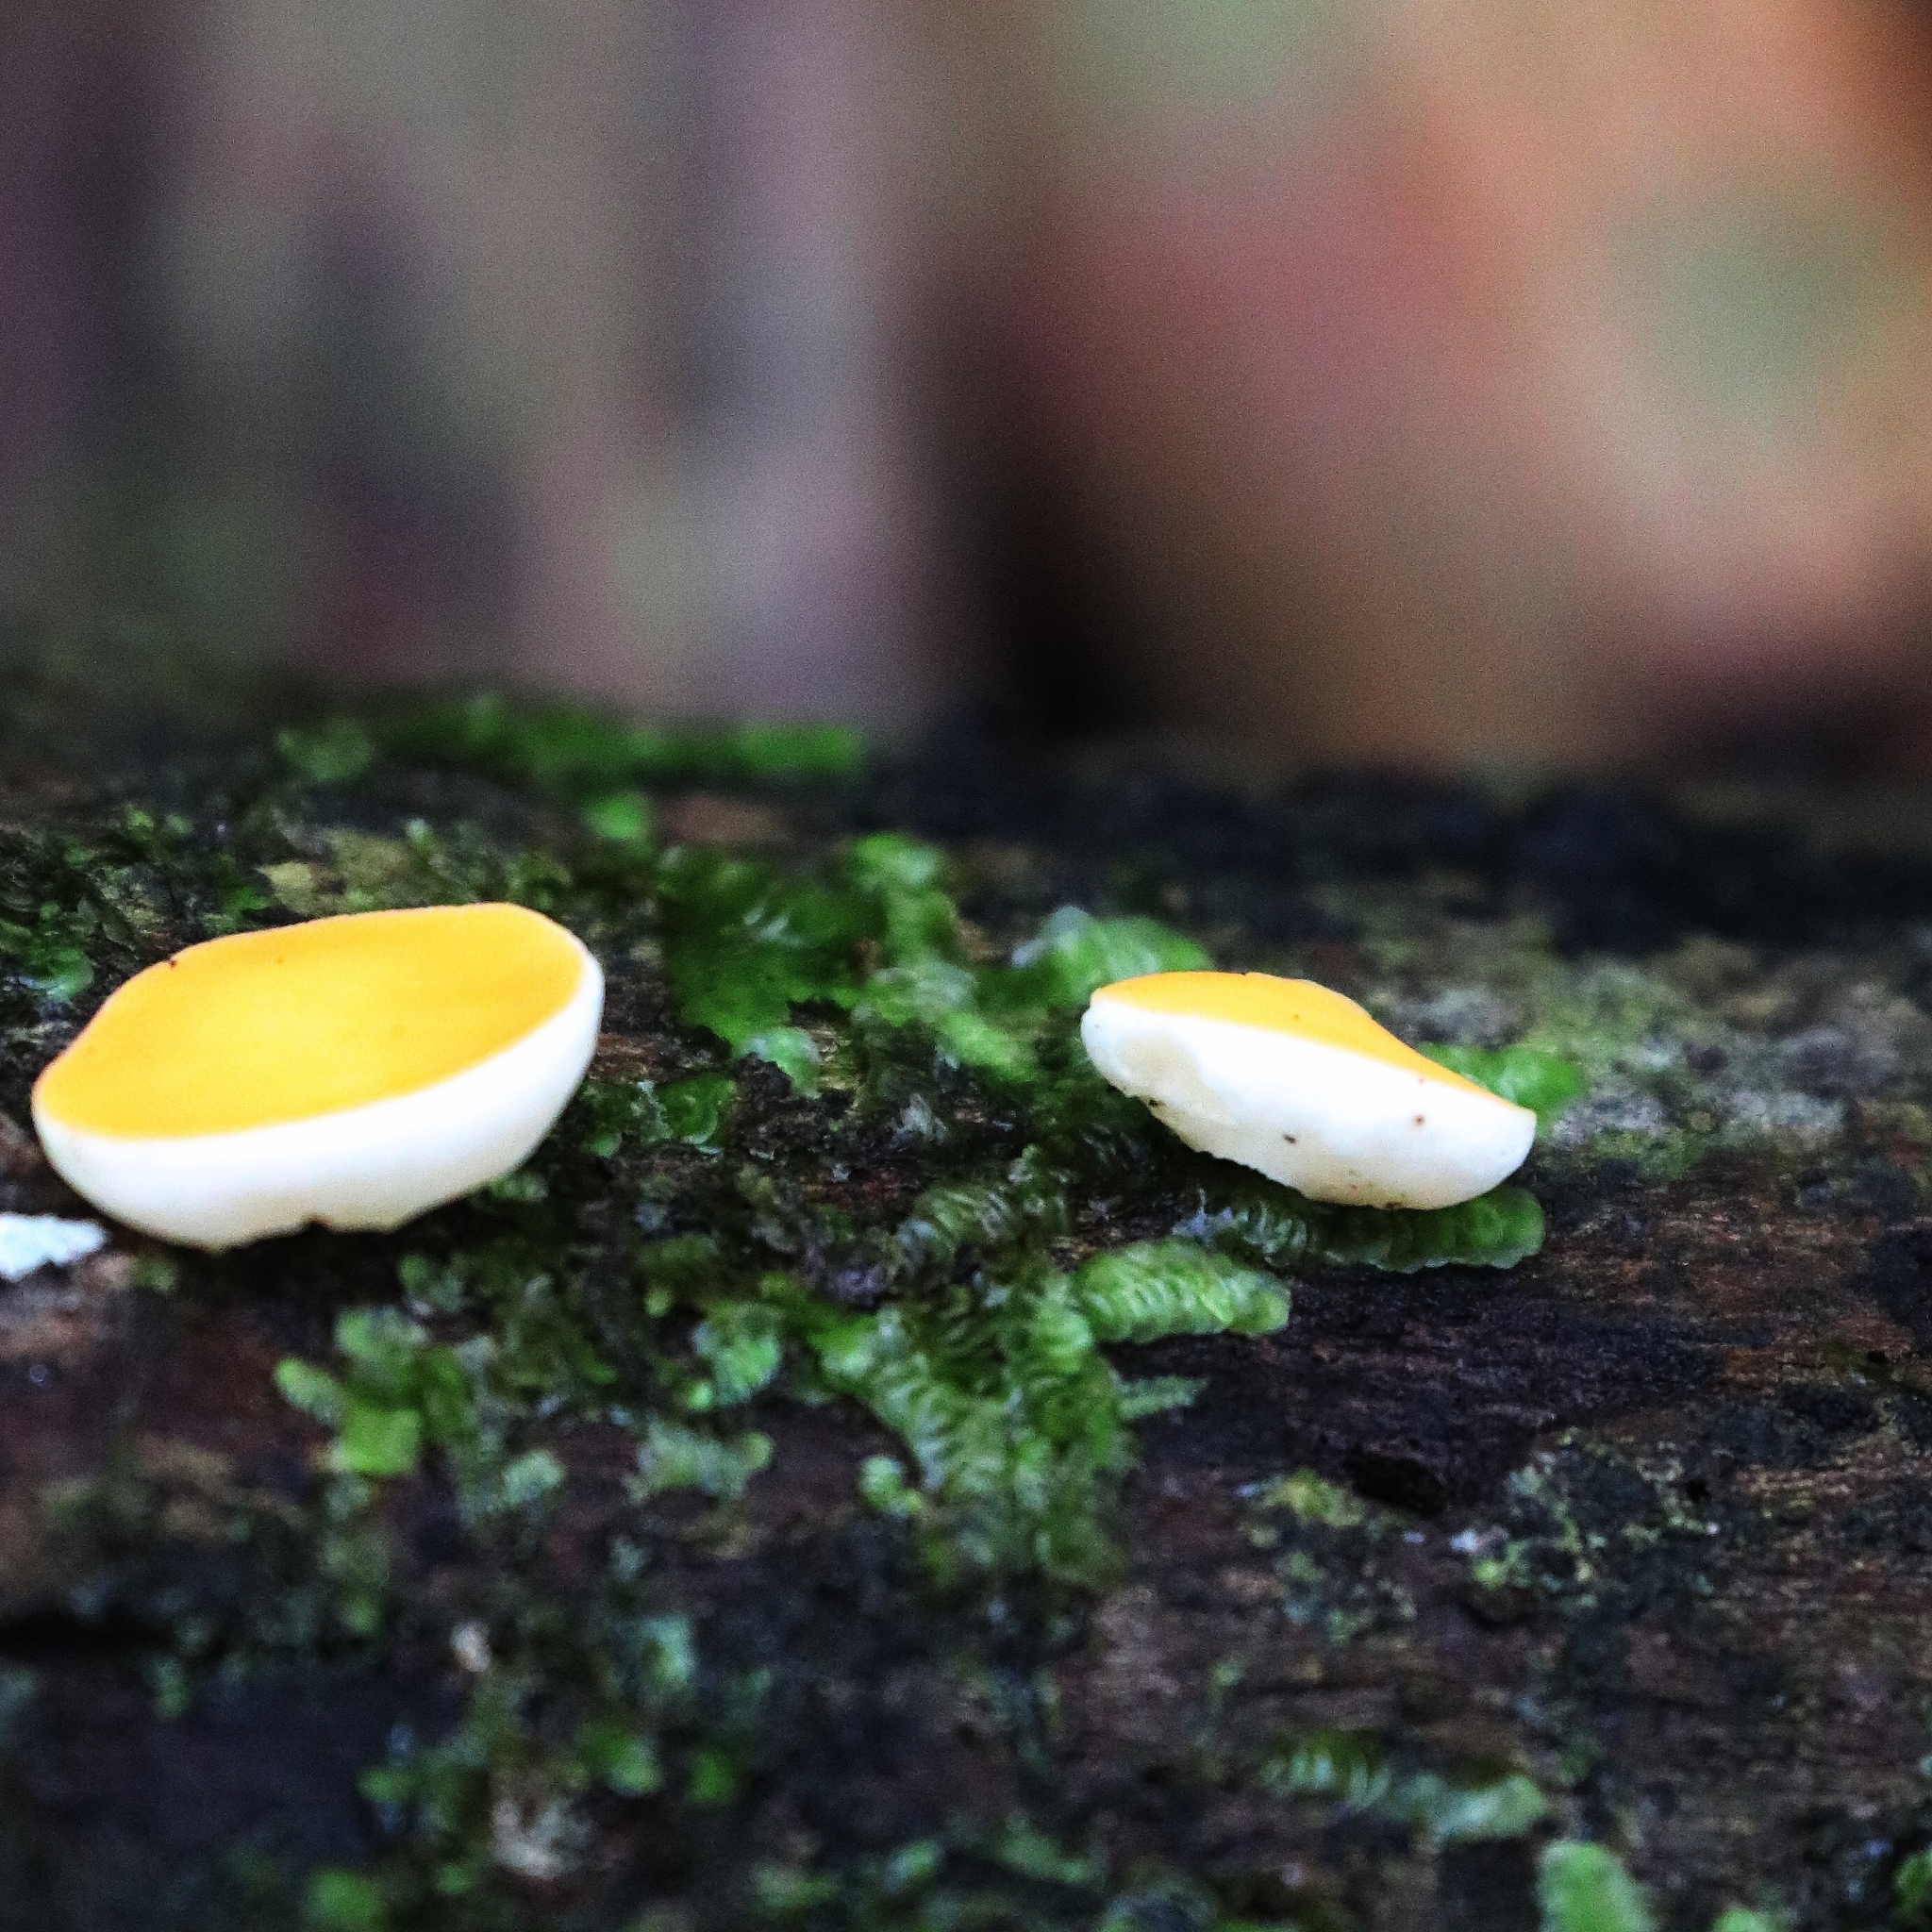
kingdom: Fungi
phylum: Ascomycota
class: Pezizomycetes
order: Pezizales
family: Sarcoscyphaceae
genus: Phillipsia
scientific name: Phillipsia lutea
